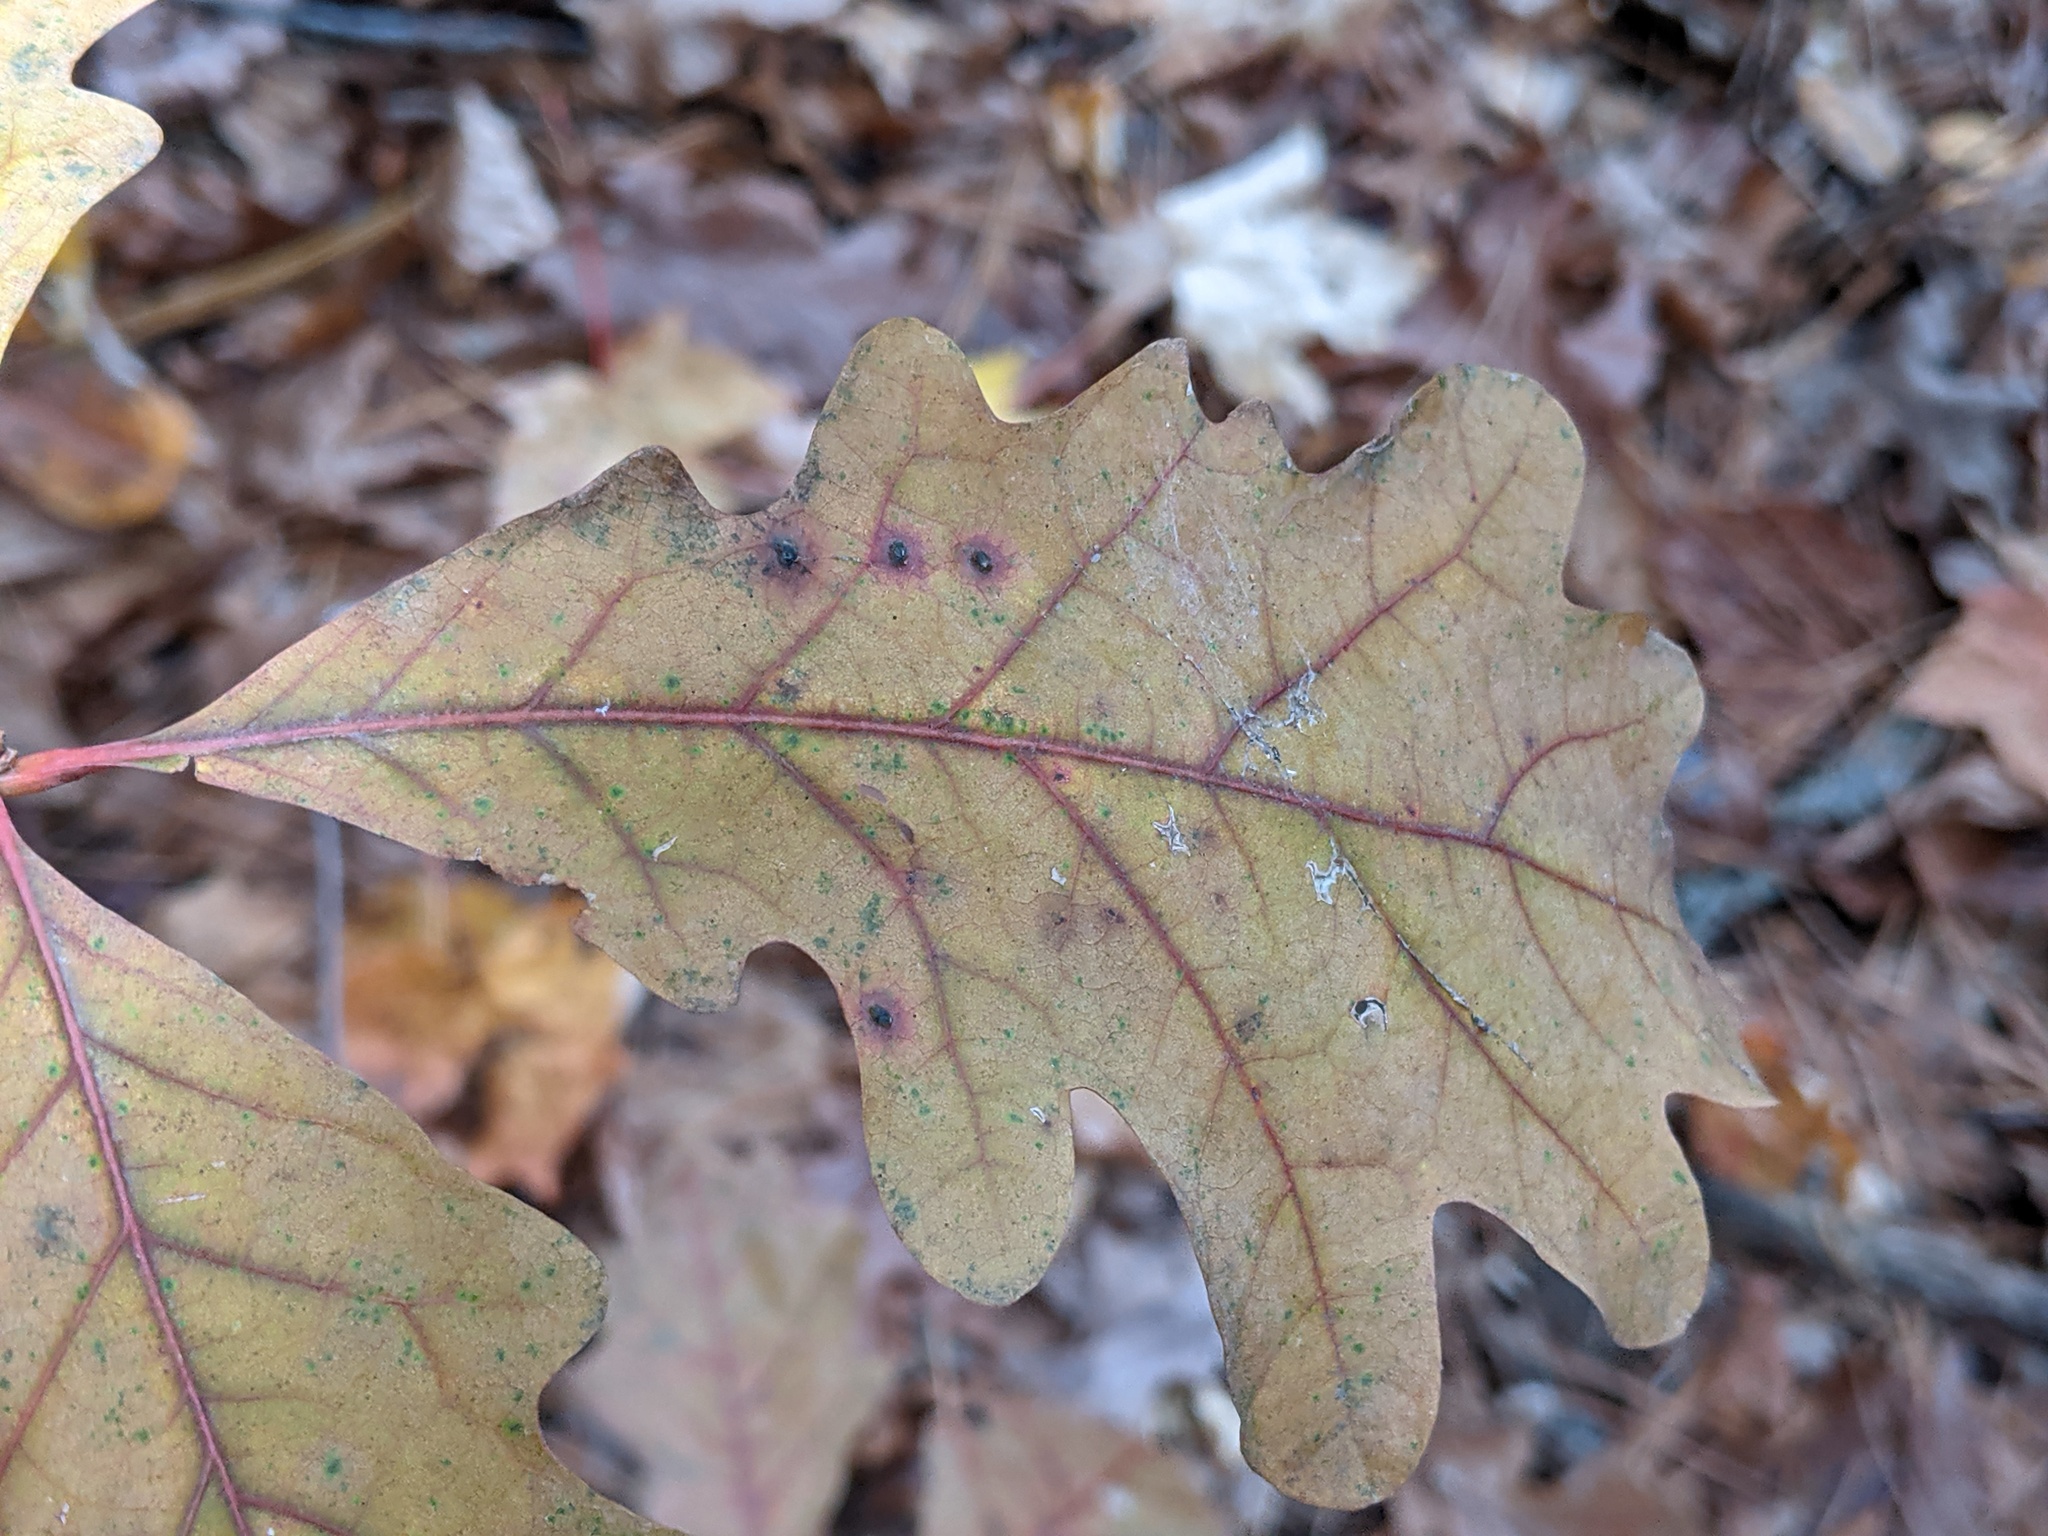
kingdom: Animalia
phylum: Arthropoda
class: Insecta
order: Hymenoptera
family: Cynipidae
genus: Neuroterus
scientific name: Neuroterus quercusverrucarum
